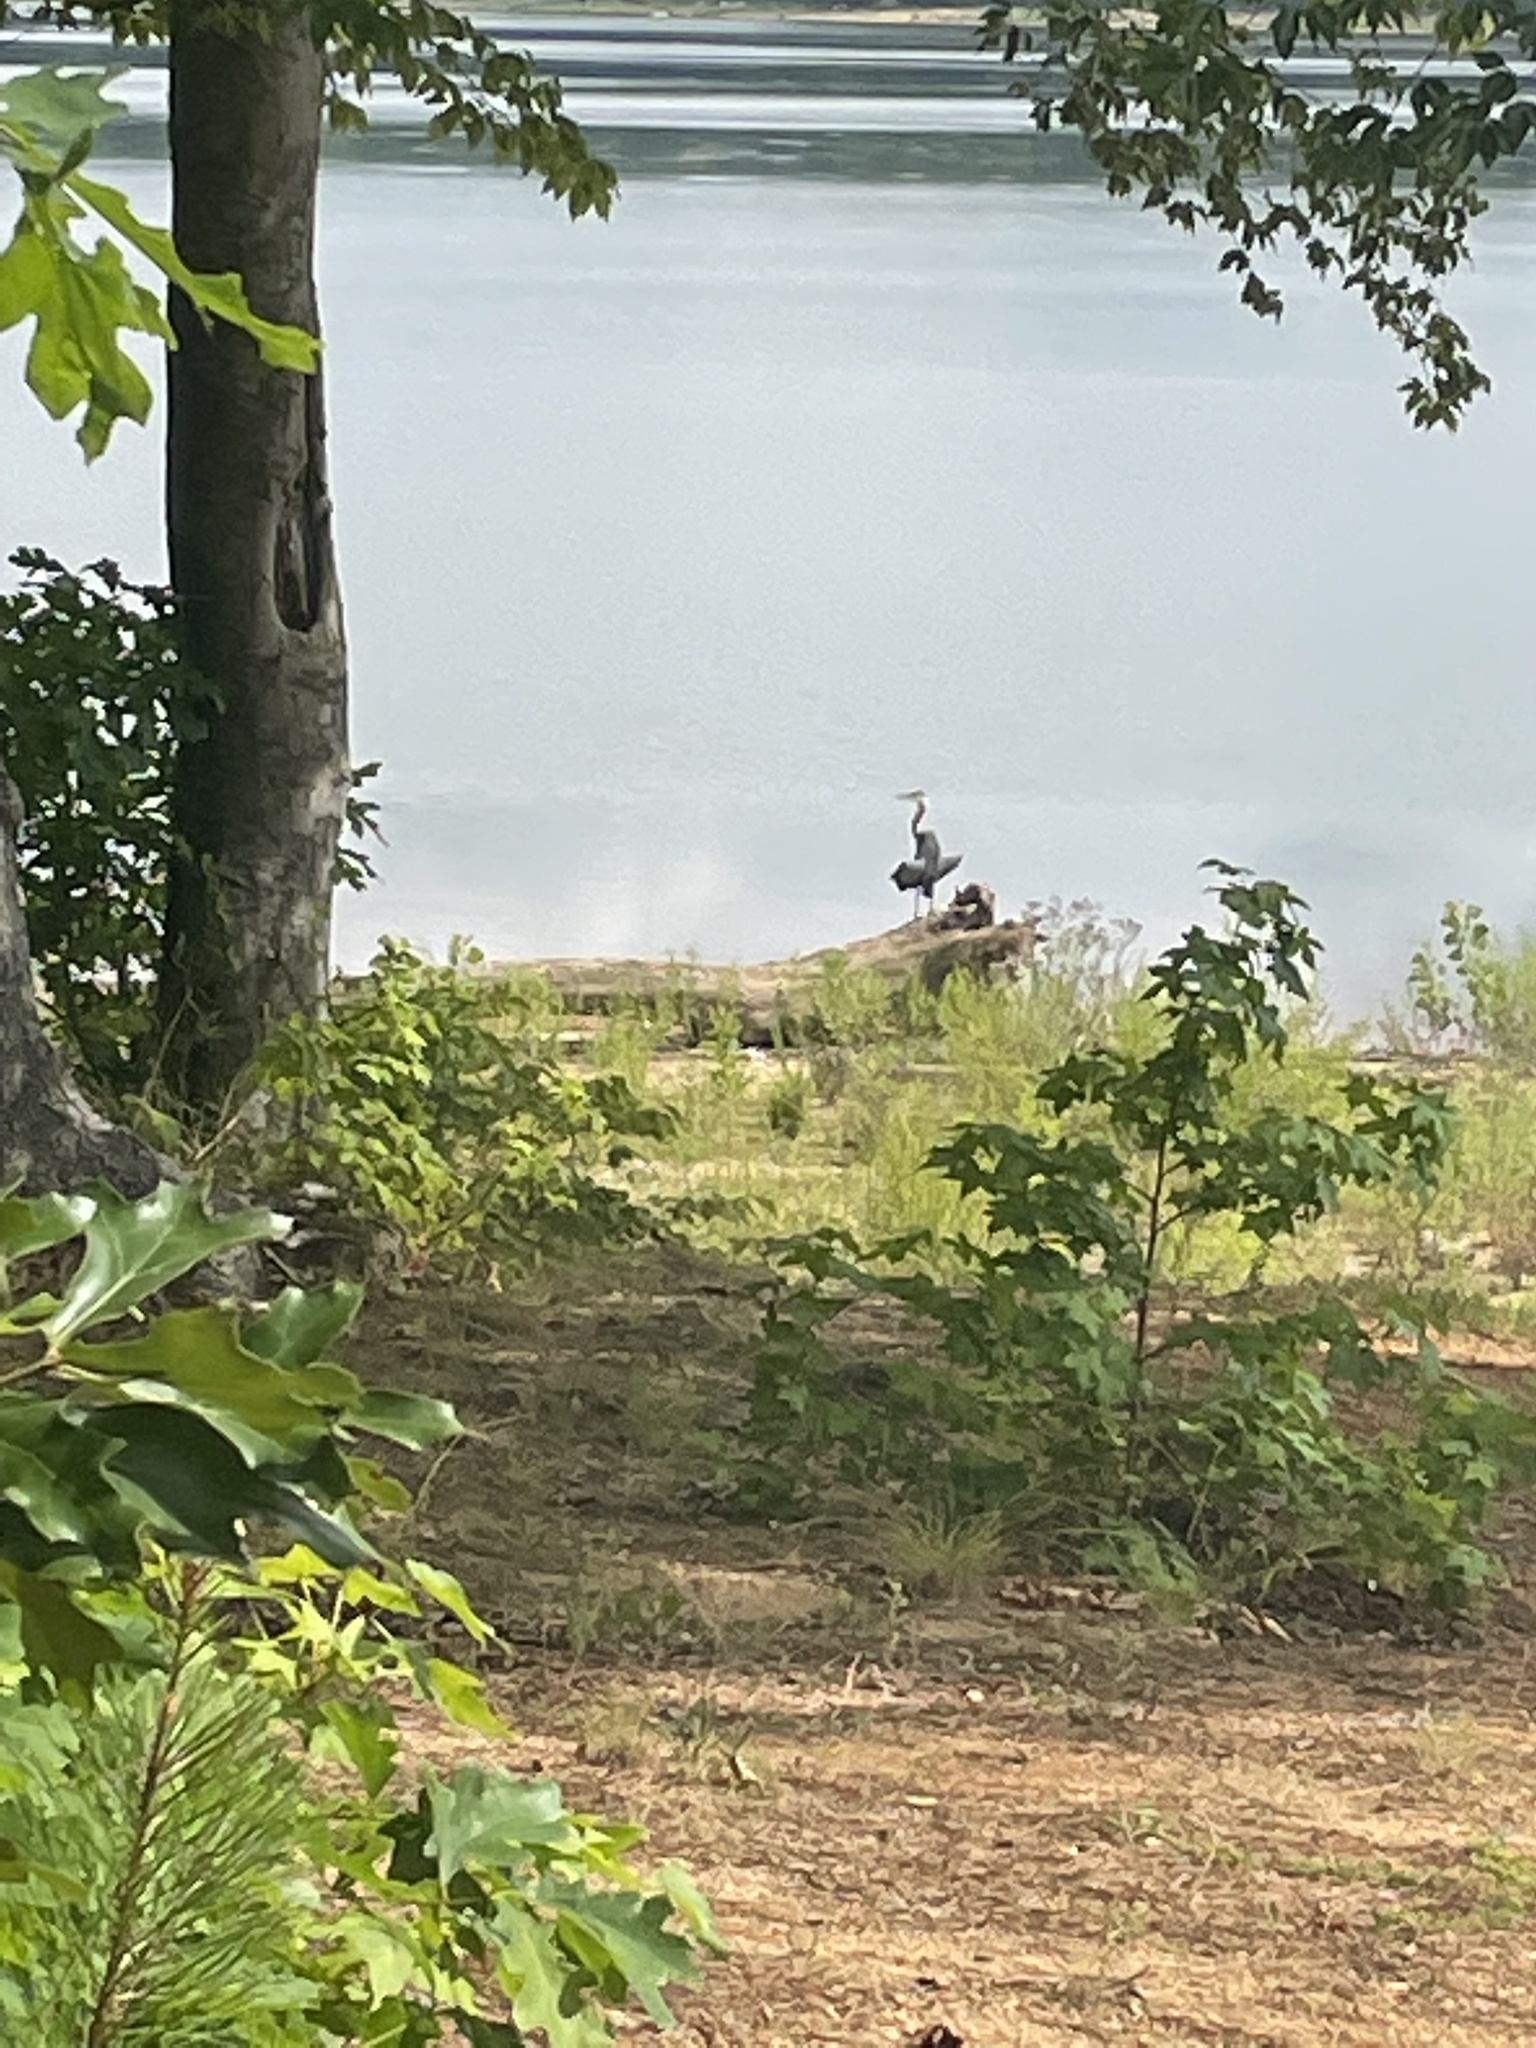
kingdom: Animalia
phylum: Chordata
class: Aves
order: Pelecaniformes
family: Ardeidae
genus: Ardea
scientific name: Ardea herodias
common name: Great blue heron
